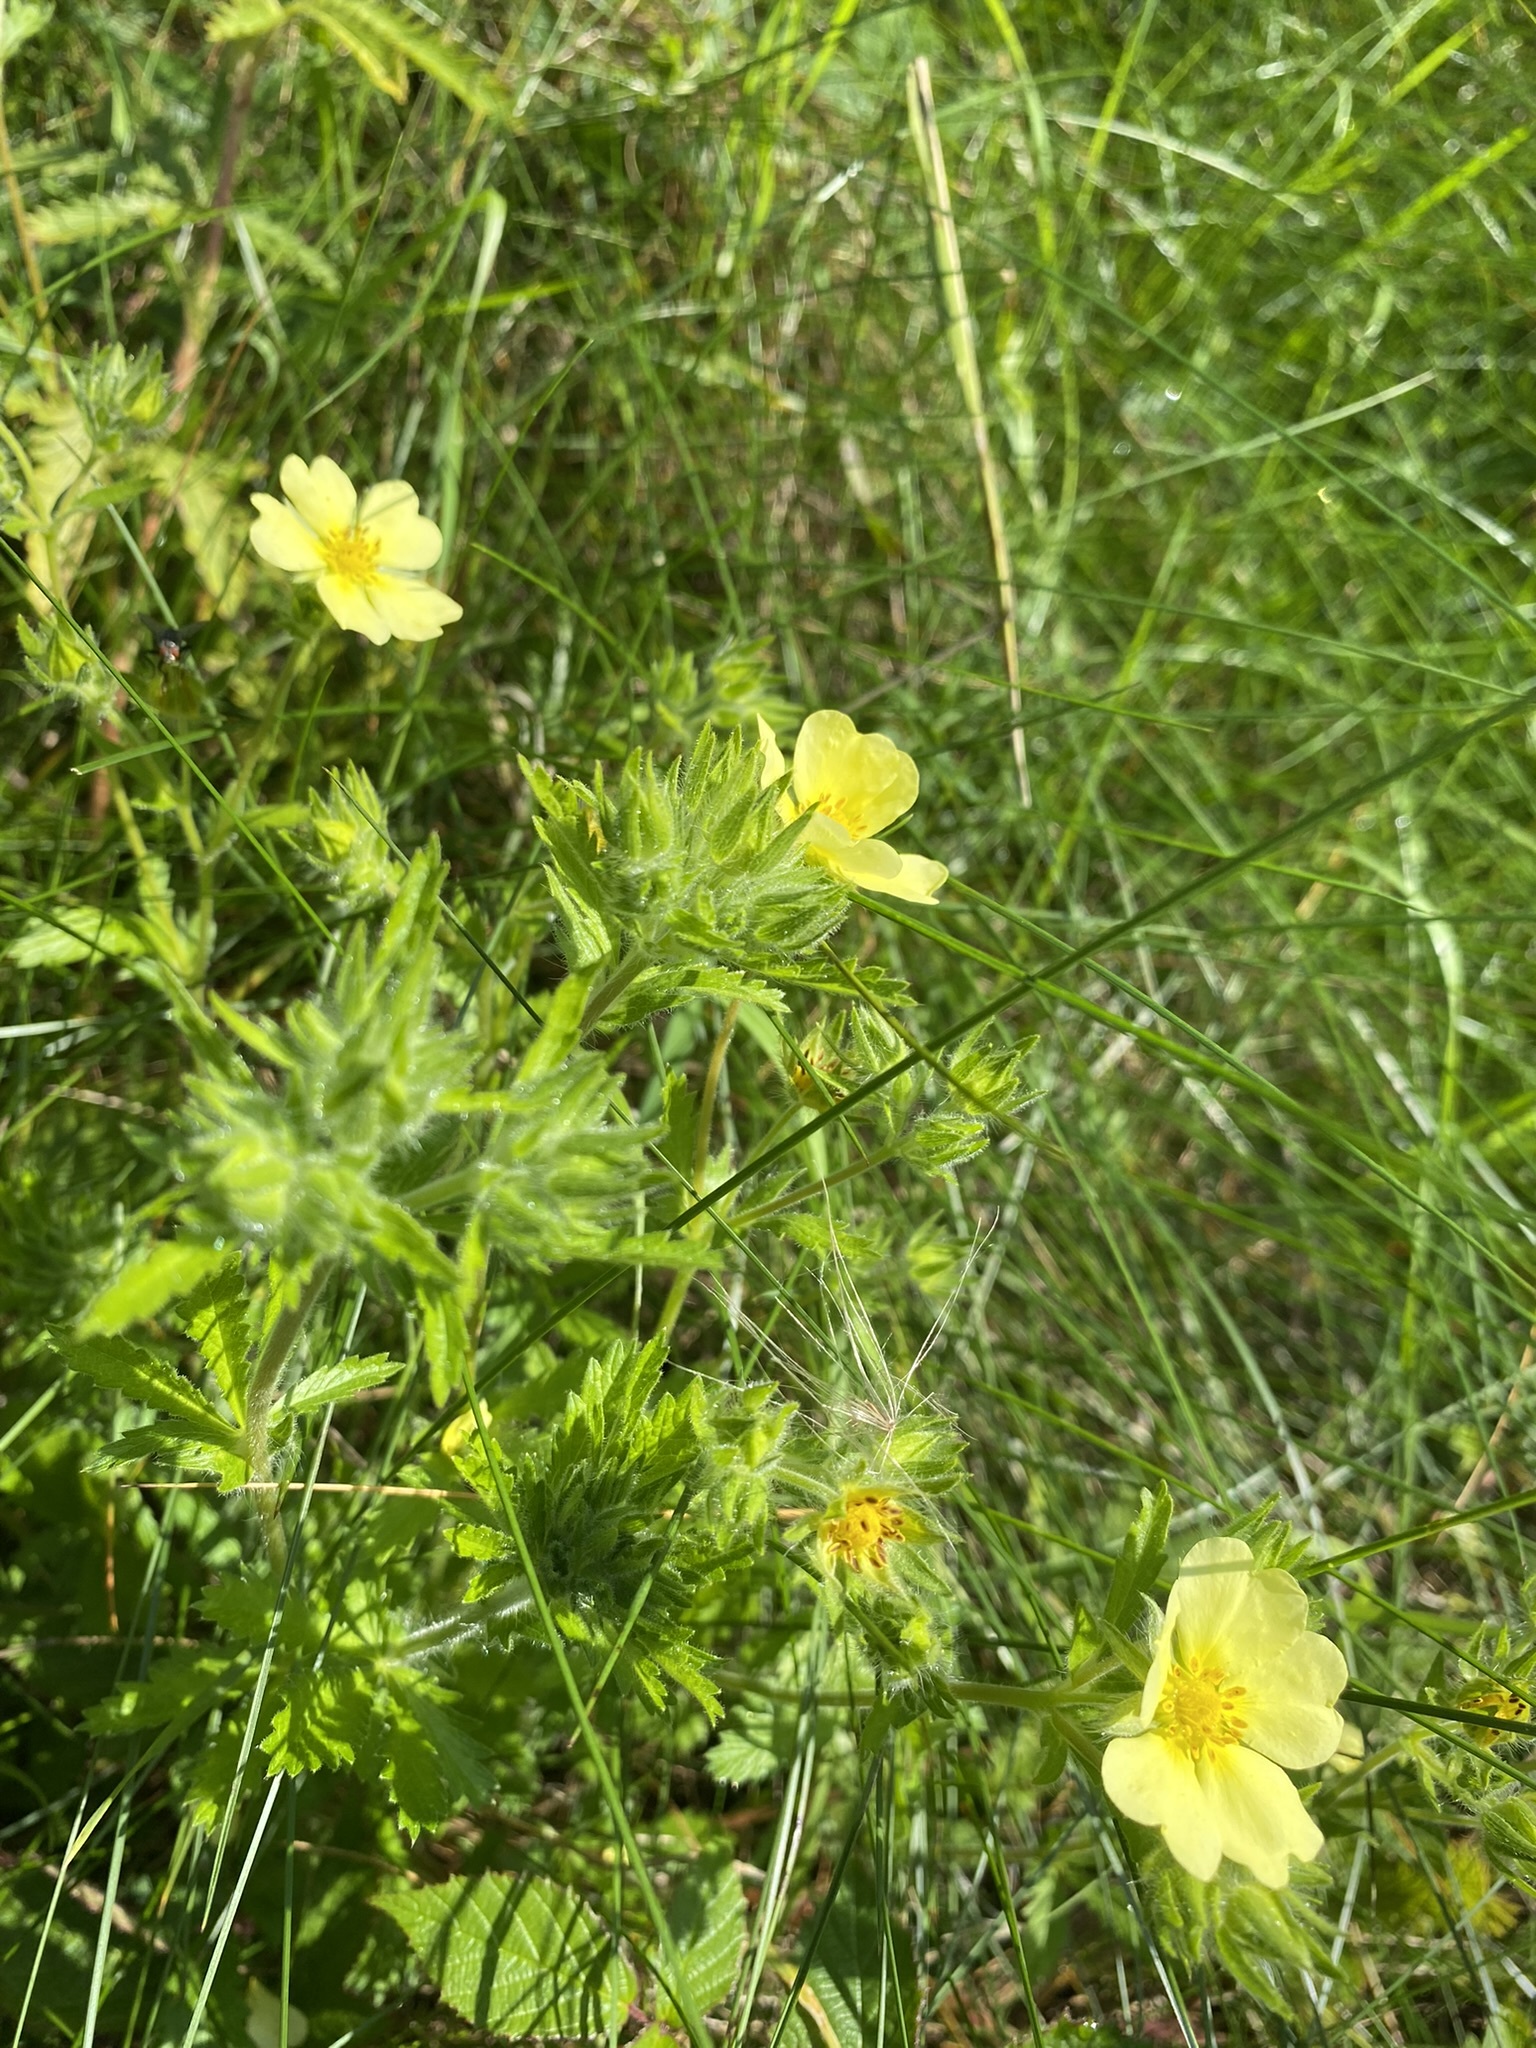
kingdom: Plantae
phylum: Tracheophyta
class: Magnoliopsida
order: Rosales
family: Rosaceae
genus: Potentilla
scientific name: Potentilla recta
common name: Sulphur cinquefoil
